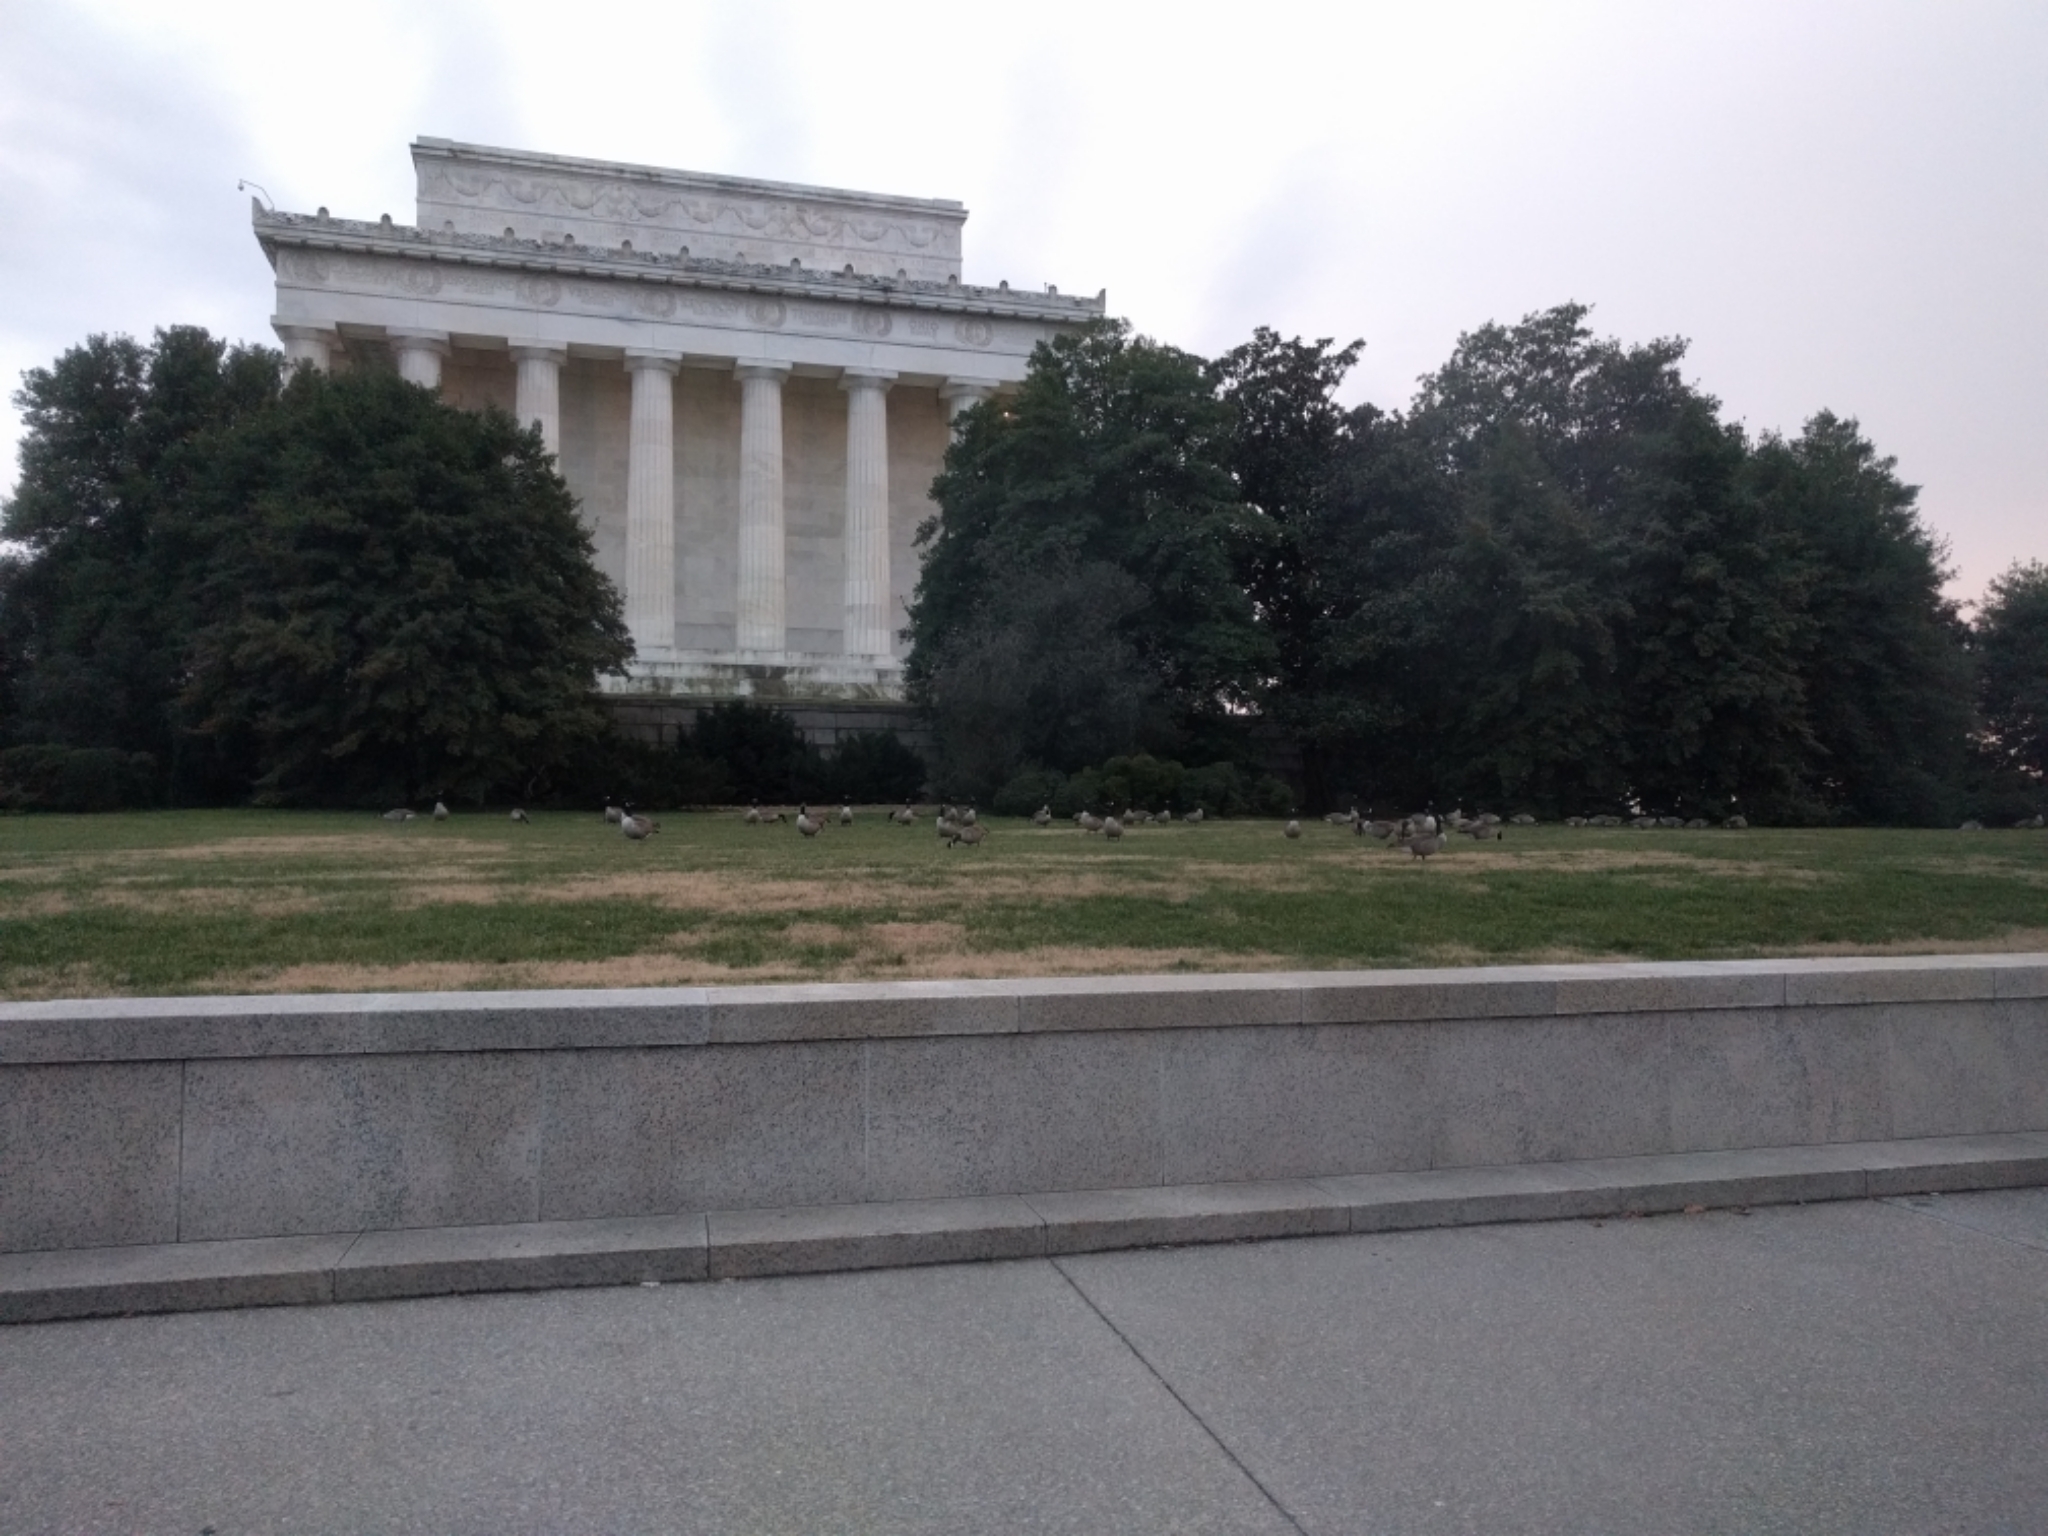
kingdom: Animalia
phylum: Chordata
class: Aves
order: Anseriformes
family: Anatidae
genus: Branta
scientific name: Branta canadensis
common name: Canada goose
